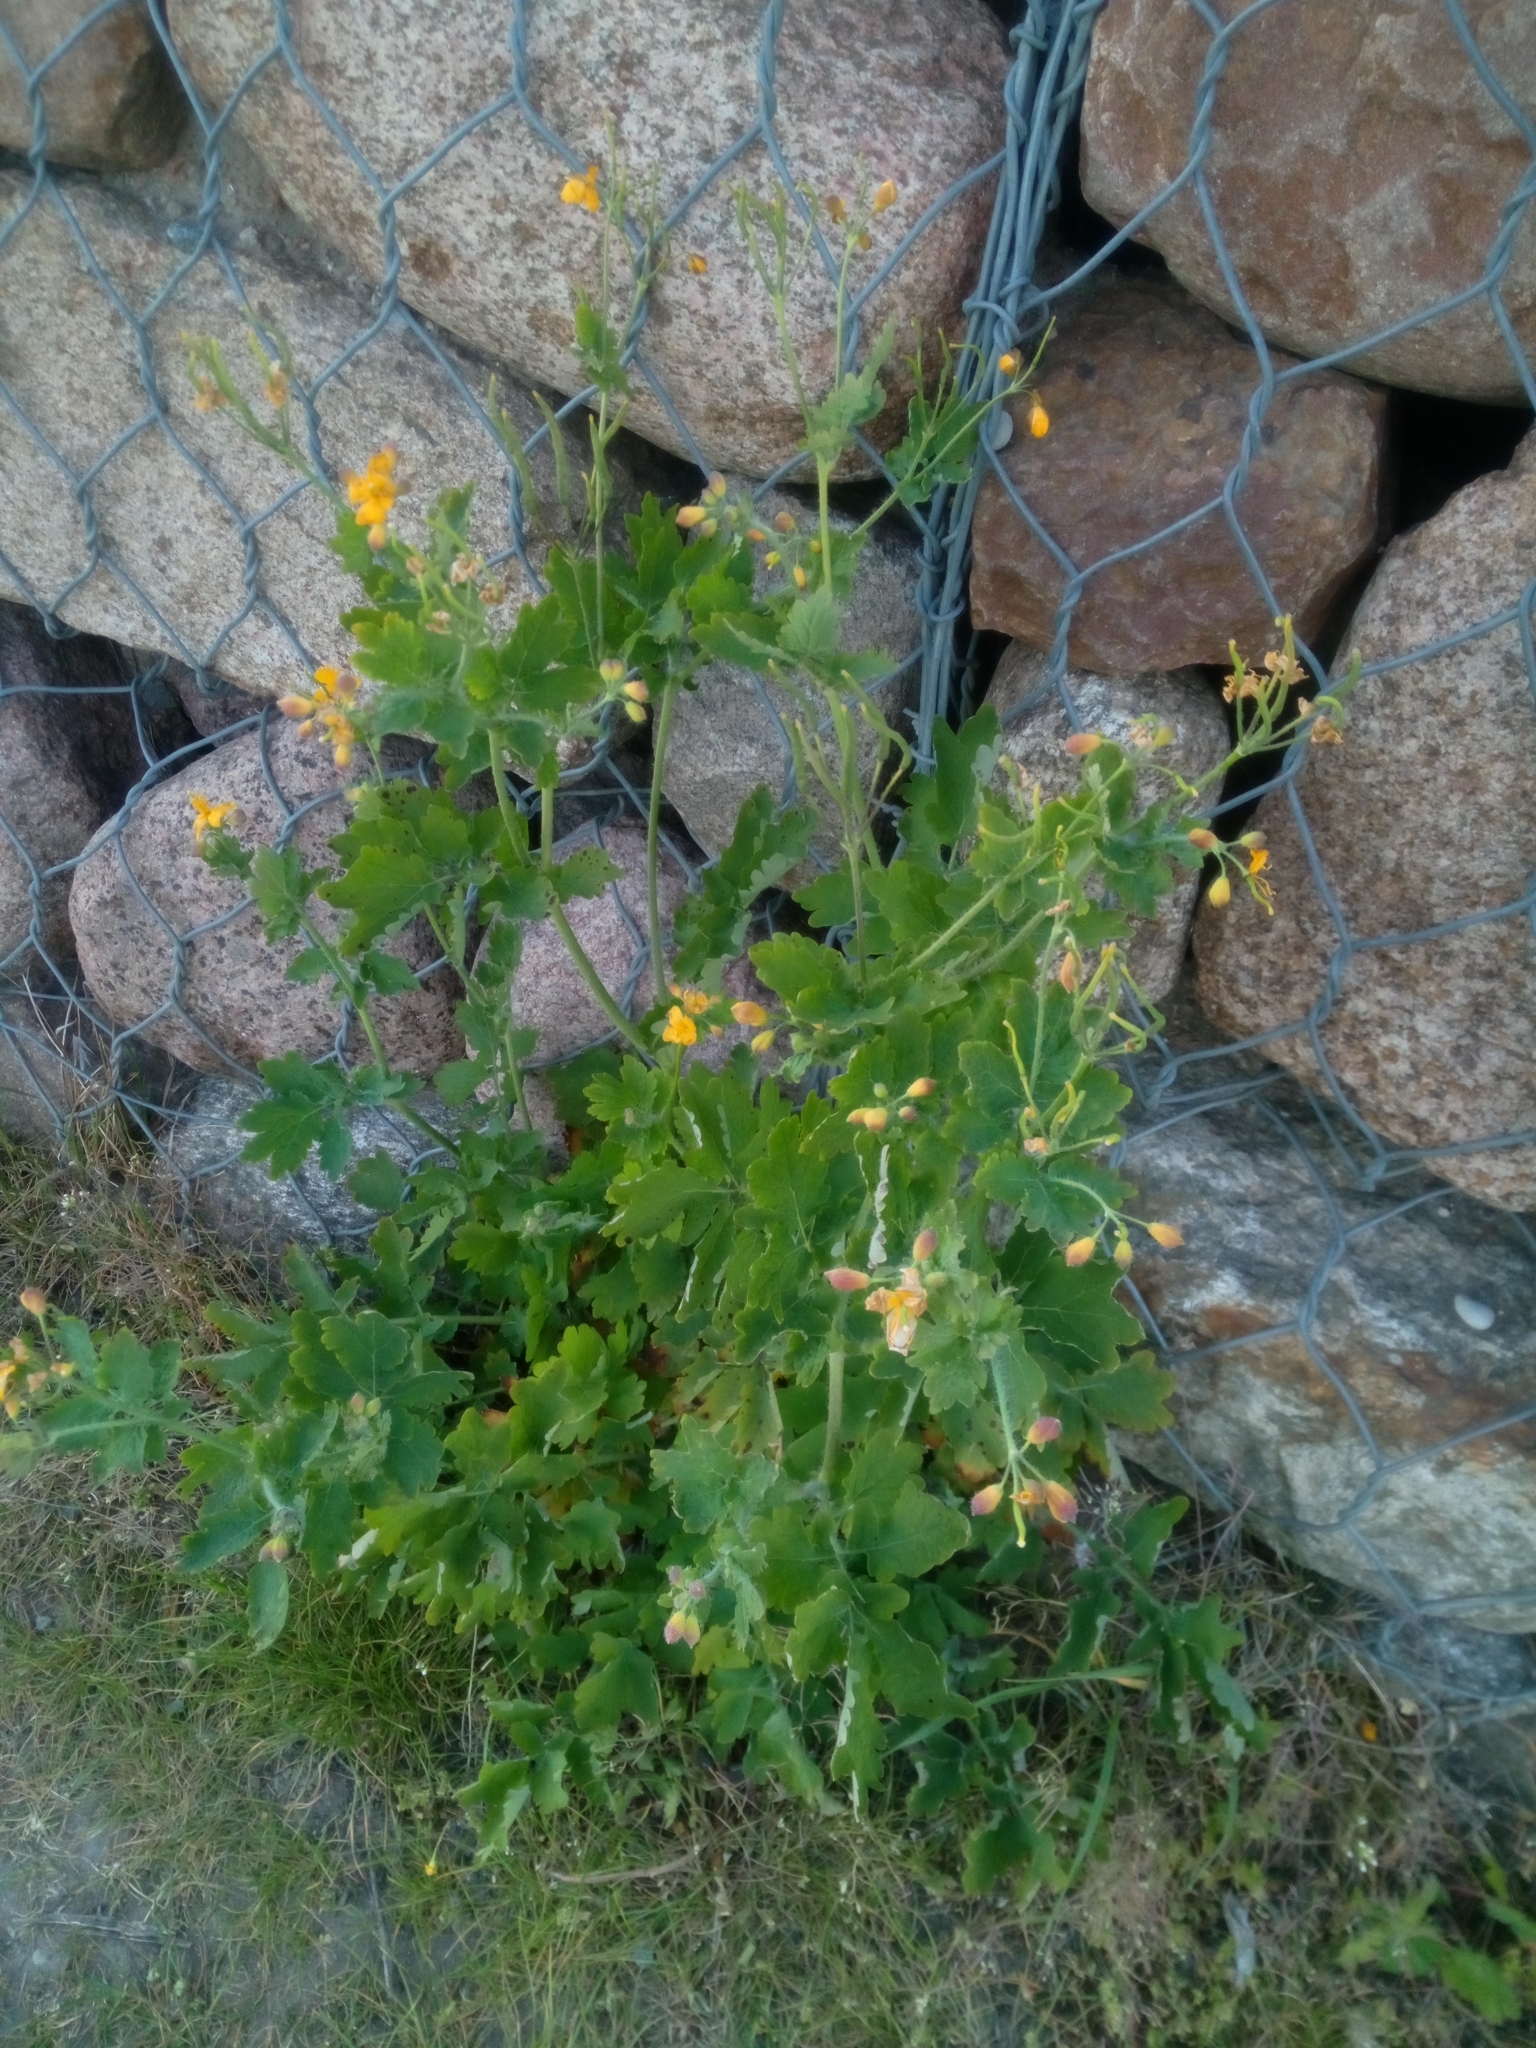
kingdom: Plantae
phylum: Tracheophyta
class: Magnoliopsida
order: Ranunculales
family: Papaveraceae
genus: Chelidonium
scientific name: Chelidonium majus
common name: Greater celandine
